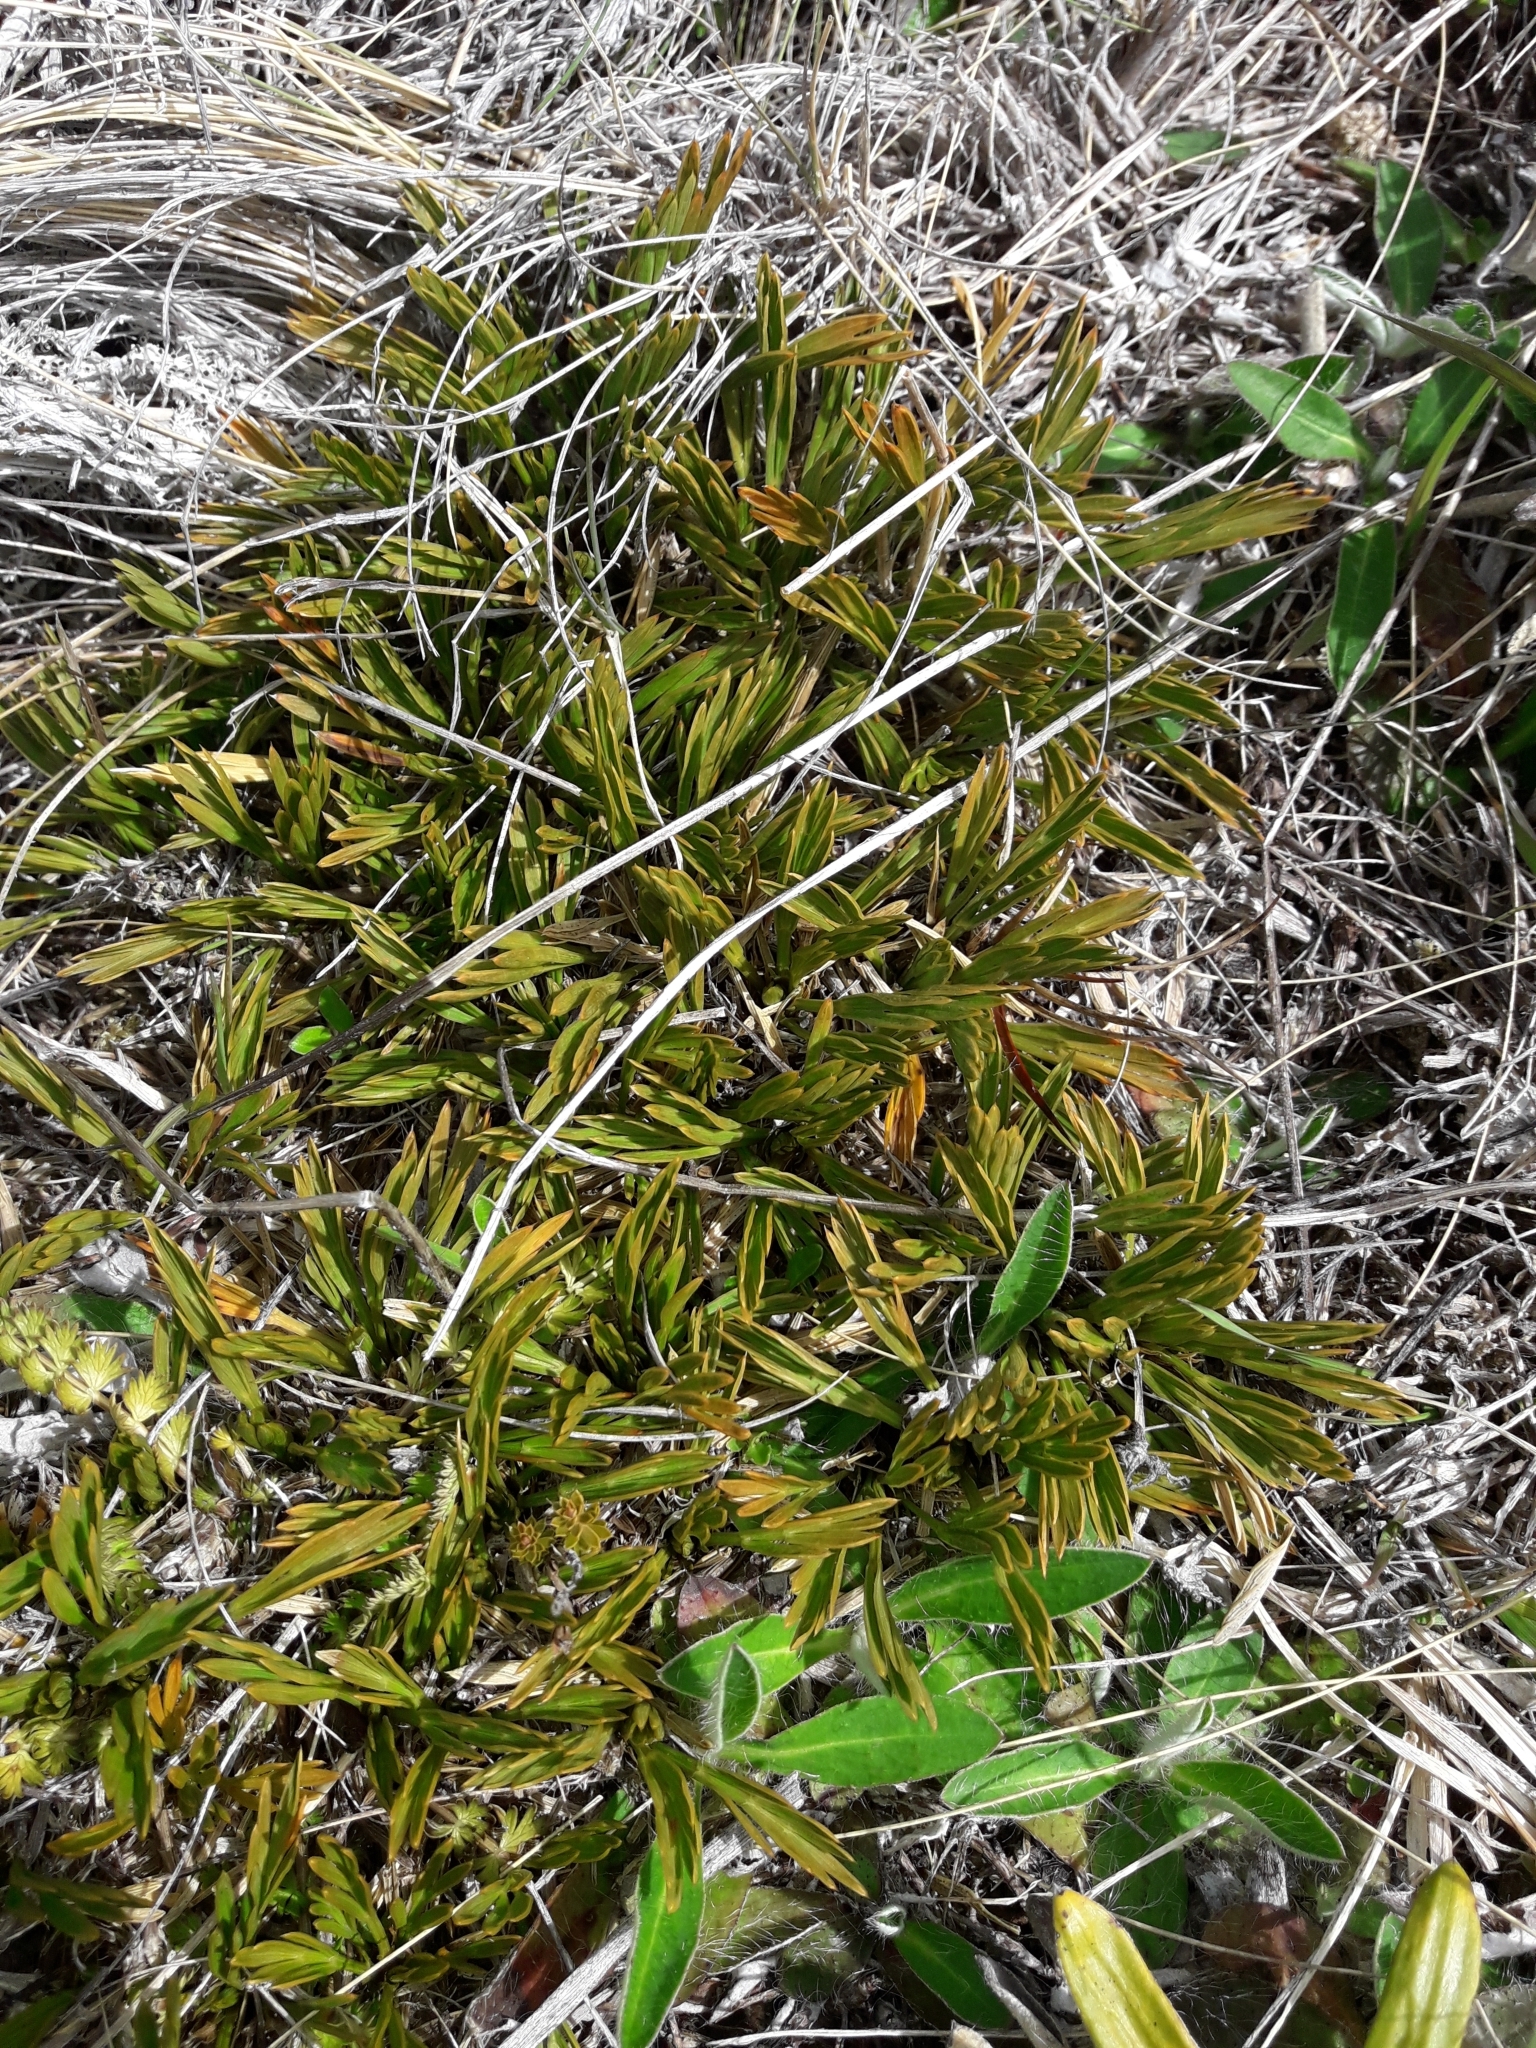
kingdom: Plantae
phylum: Tracheophyta
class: Magnoliopsida
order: Apiales
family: Apiaceae
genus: Aciphylla
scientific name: Aciphylla monroi
